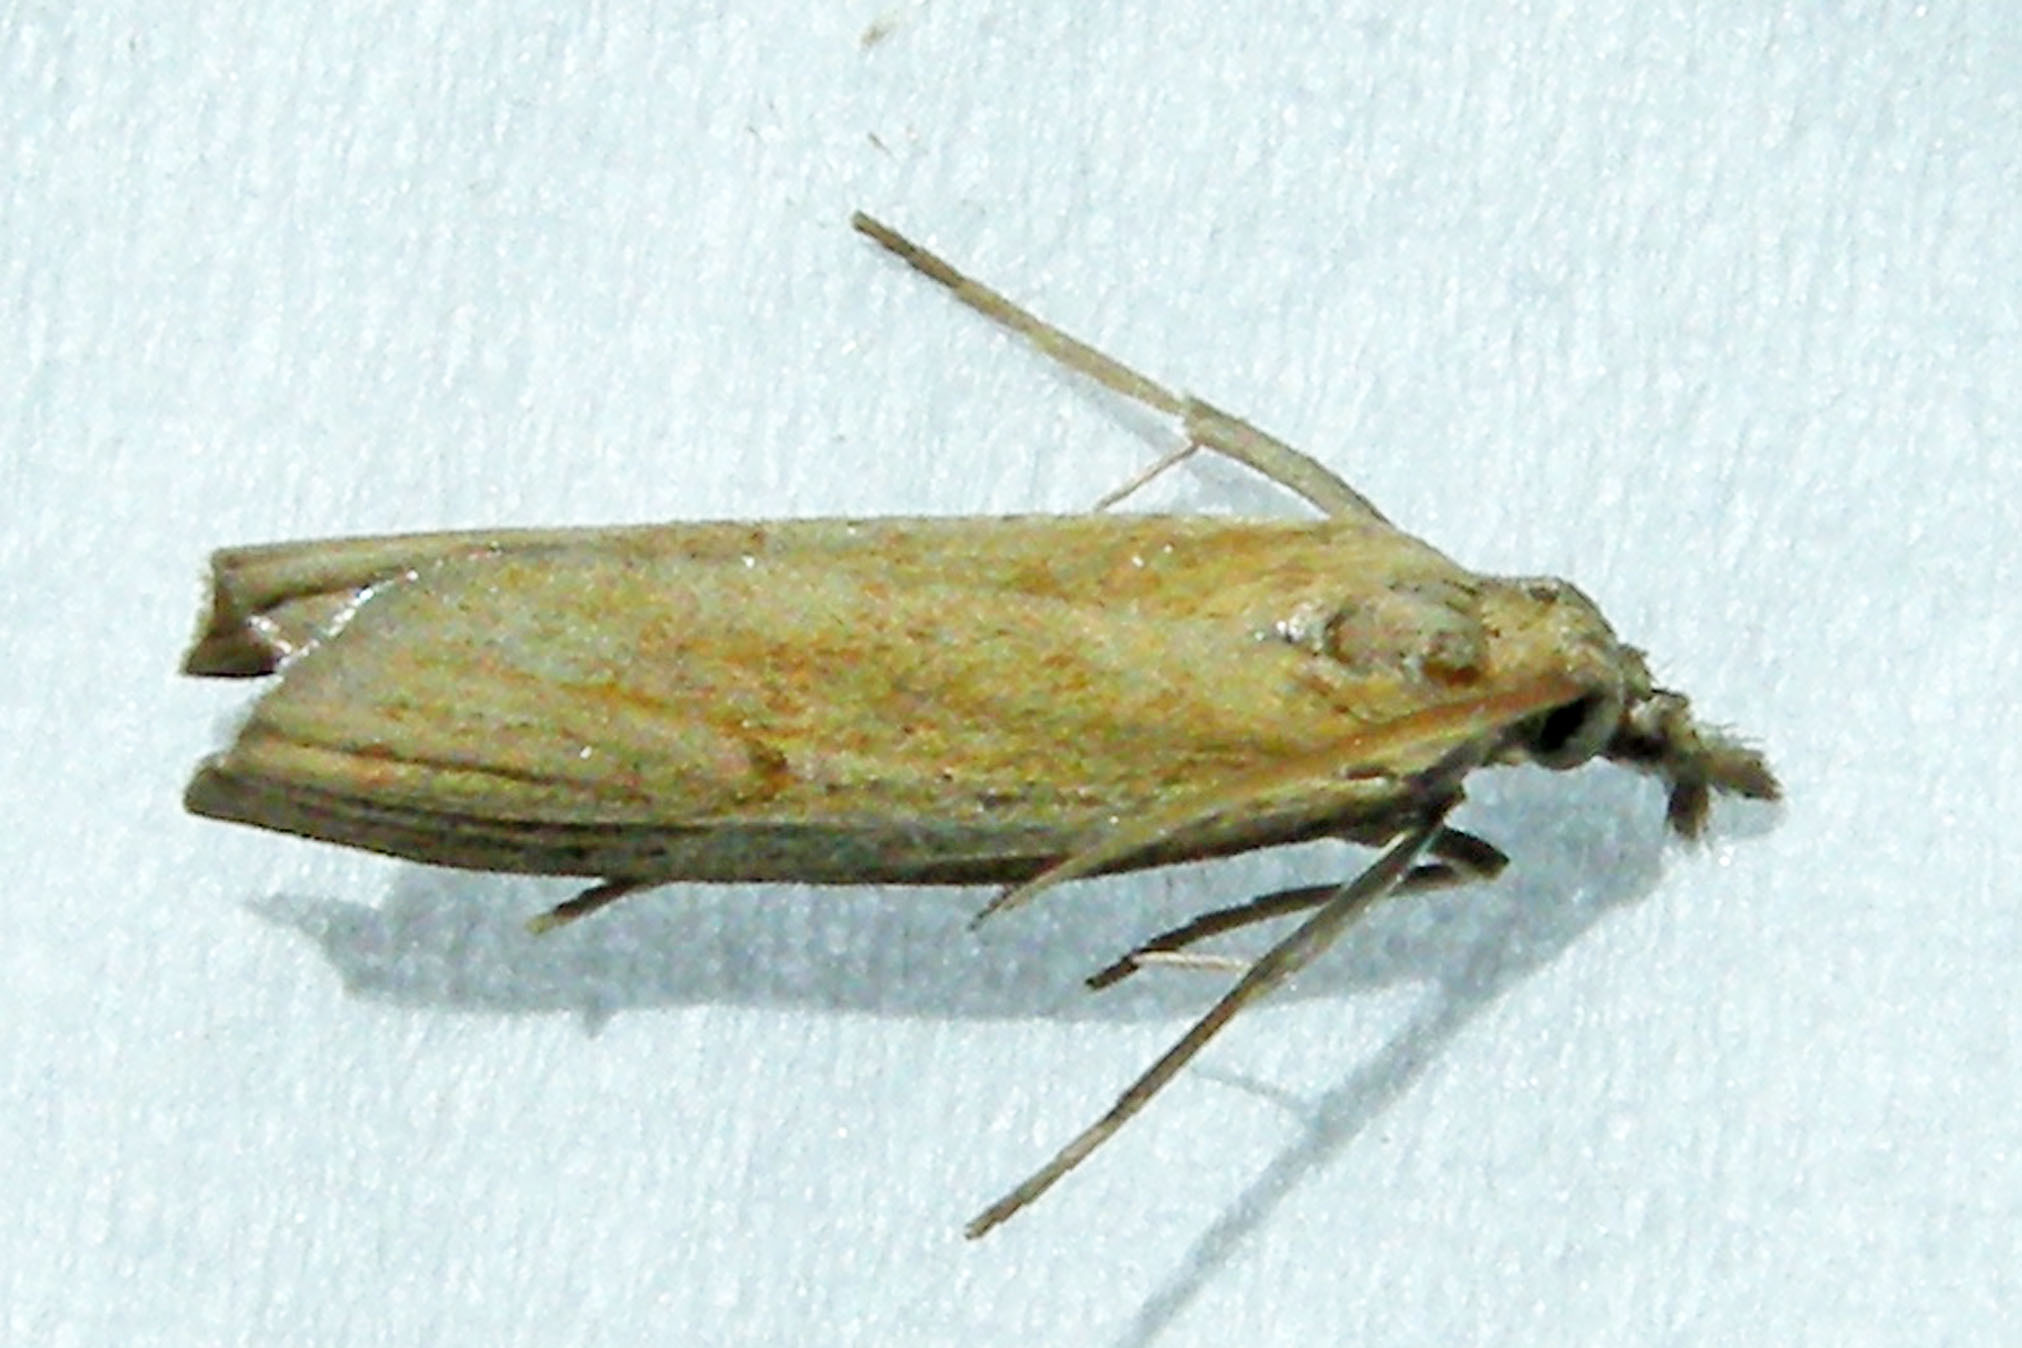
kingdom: Animalia
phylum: Arthropoda
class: Insecta
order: Lepidoptera
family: Crambidae
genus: Fissicrambus
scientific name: Fissicrambus mutabilis
